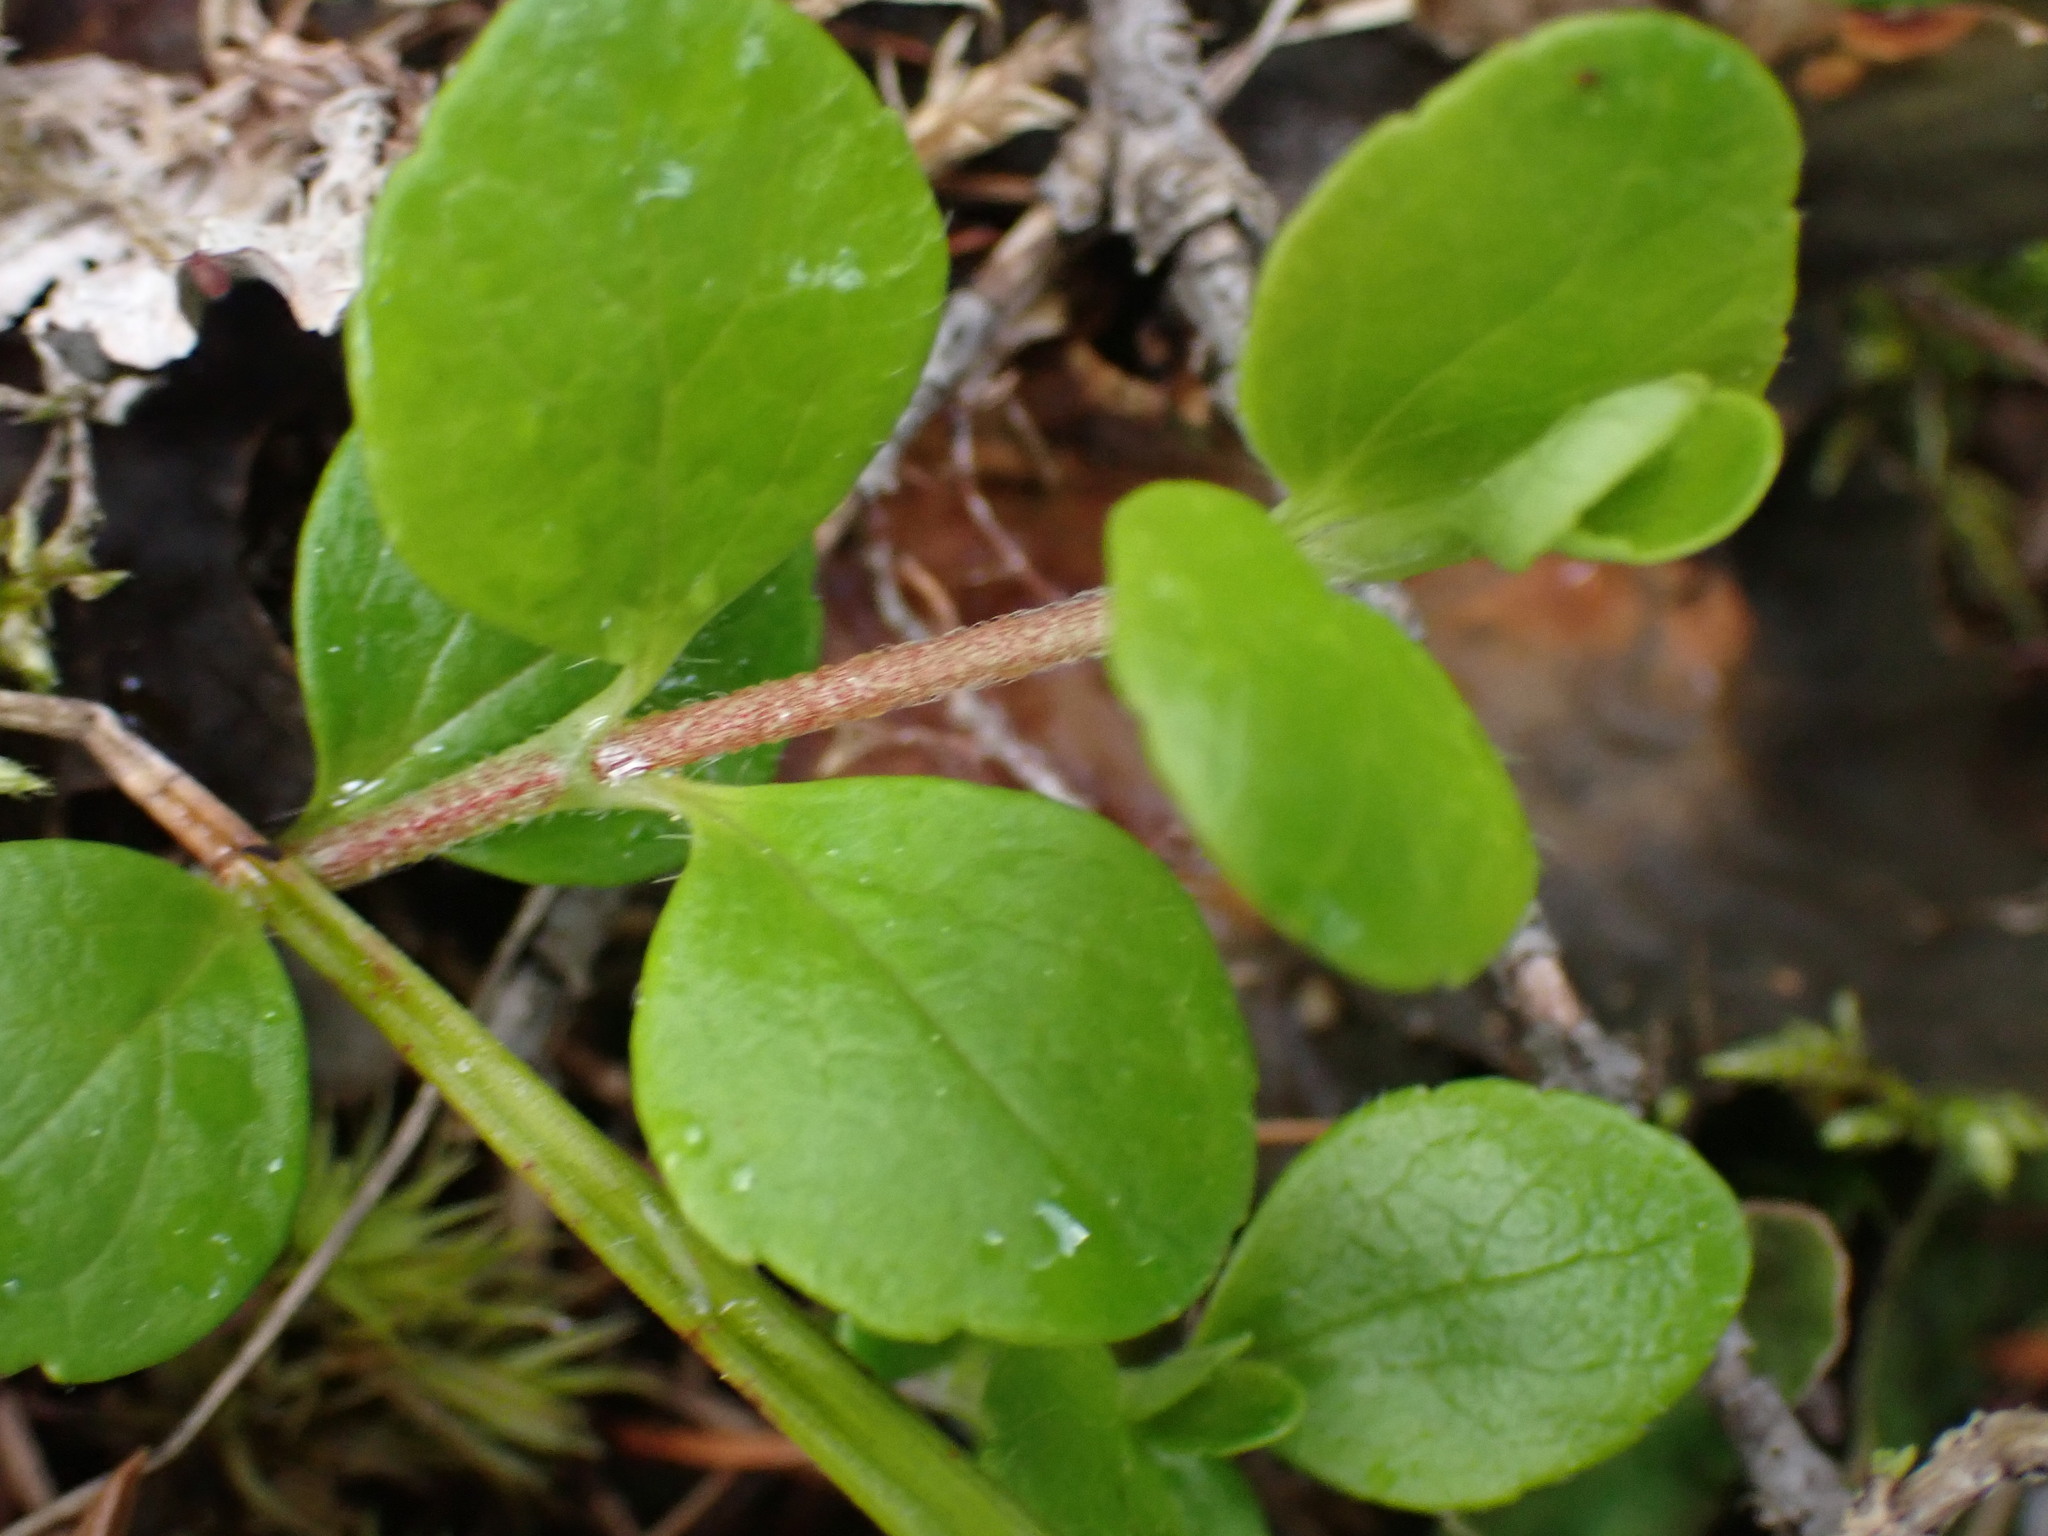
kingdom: Plantae
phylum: Tracheophyta
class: Magnoliopsida
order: Dipsacales
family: Caprifoliaceae
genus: Linnaea
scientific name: Linnaea borealis
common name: Twinflower
